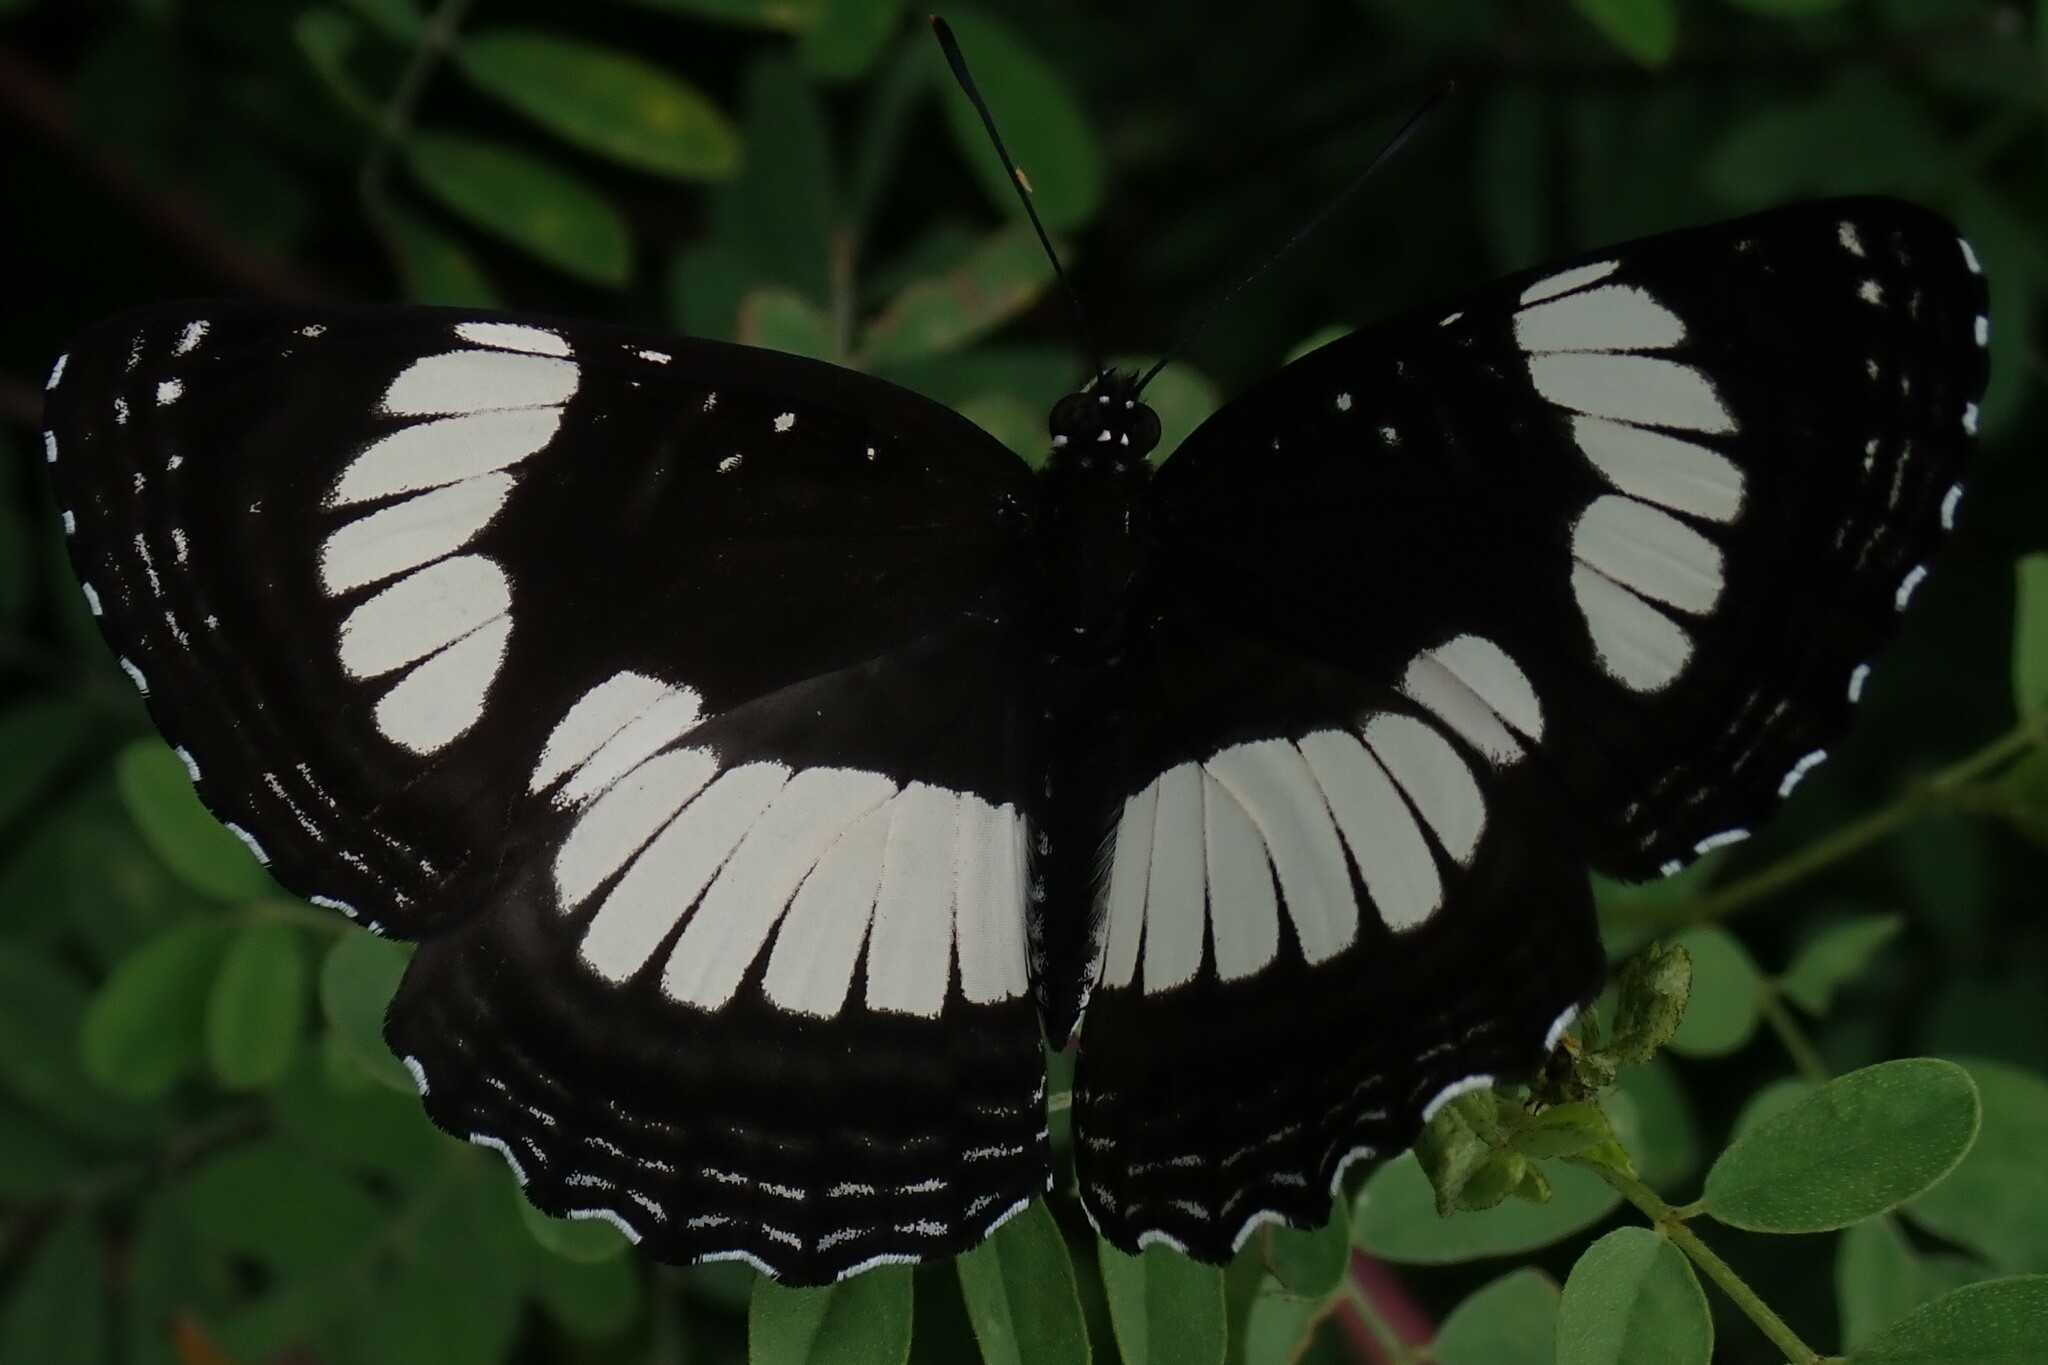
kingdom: Animalia
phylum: Arthropoda
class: Insecta
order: Lepidoptera
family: Nymphalidae
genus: Neptis
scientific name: Neptis saclava
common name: Small spotted sailor
